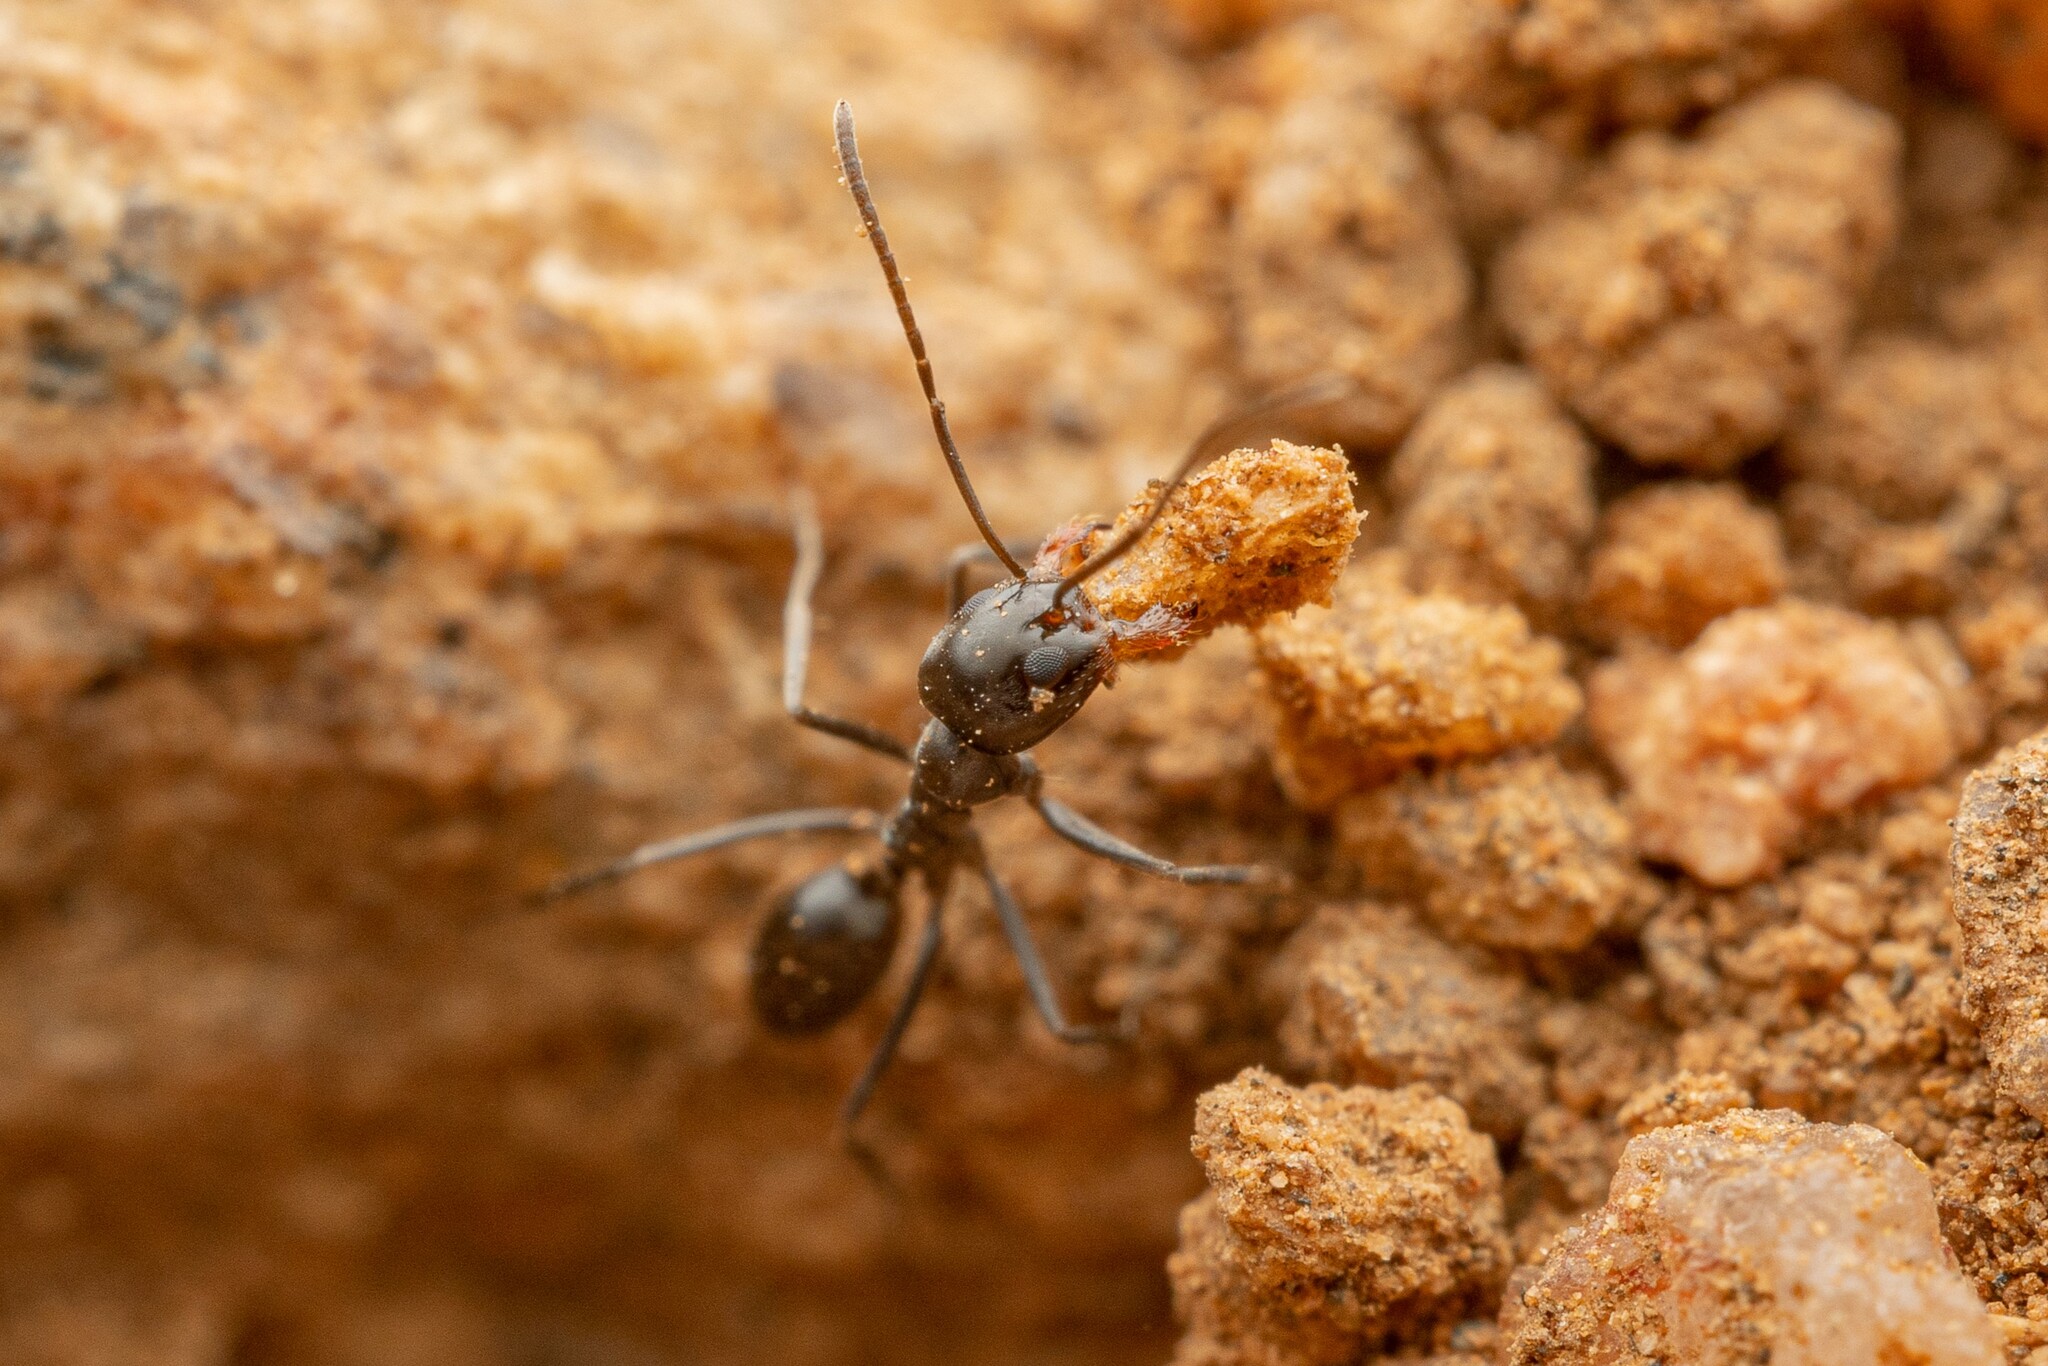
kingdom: Animalia
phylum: Arthropoda
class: Insecta
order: Hymenoptera
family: Formicidae
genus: Dorymyrmex
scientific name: Dorymyrmex
